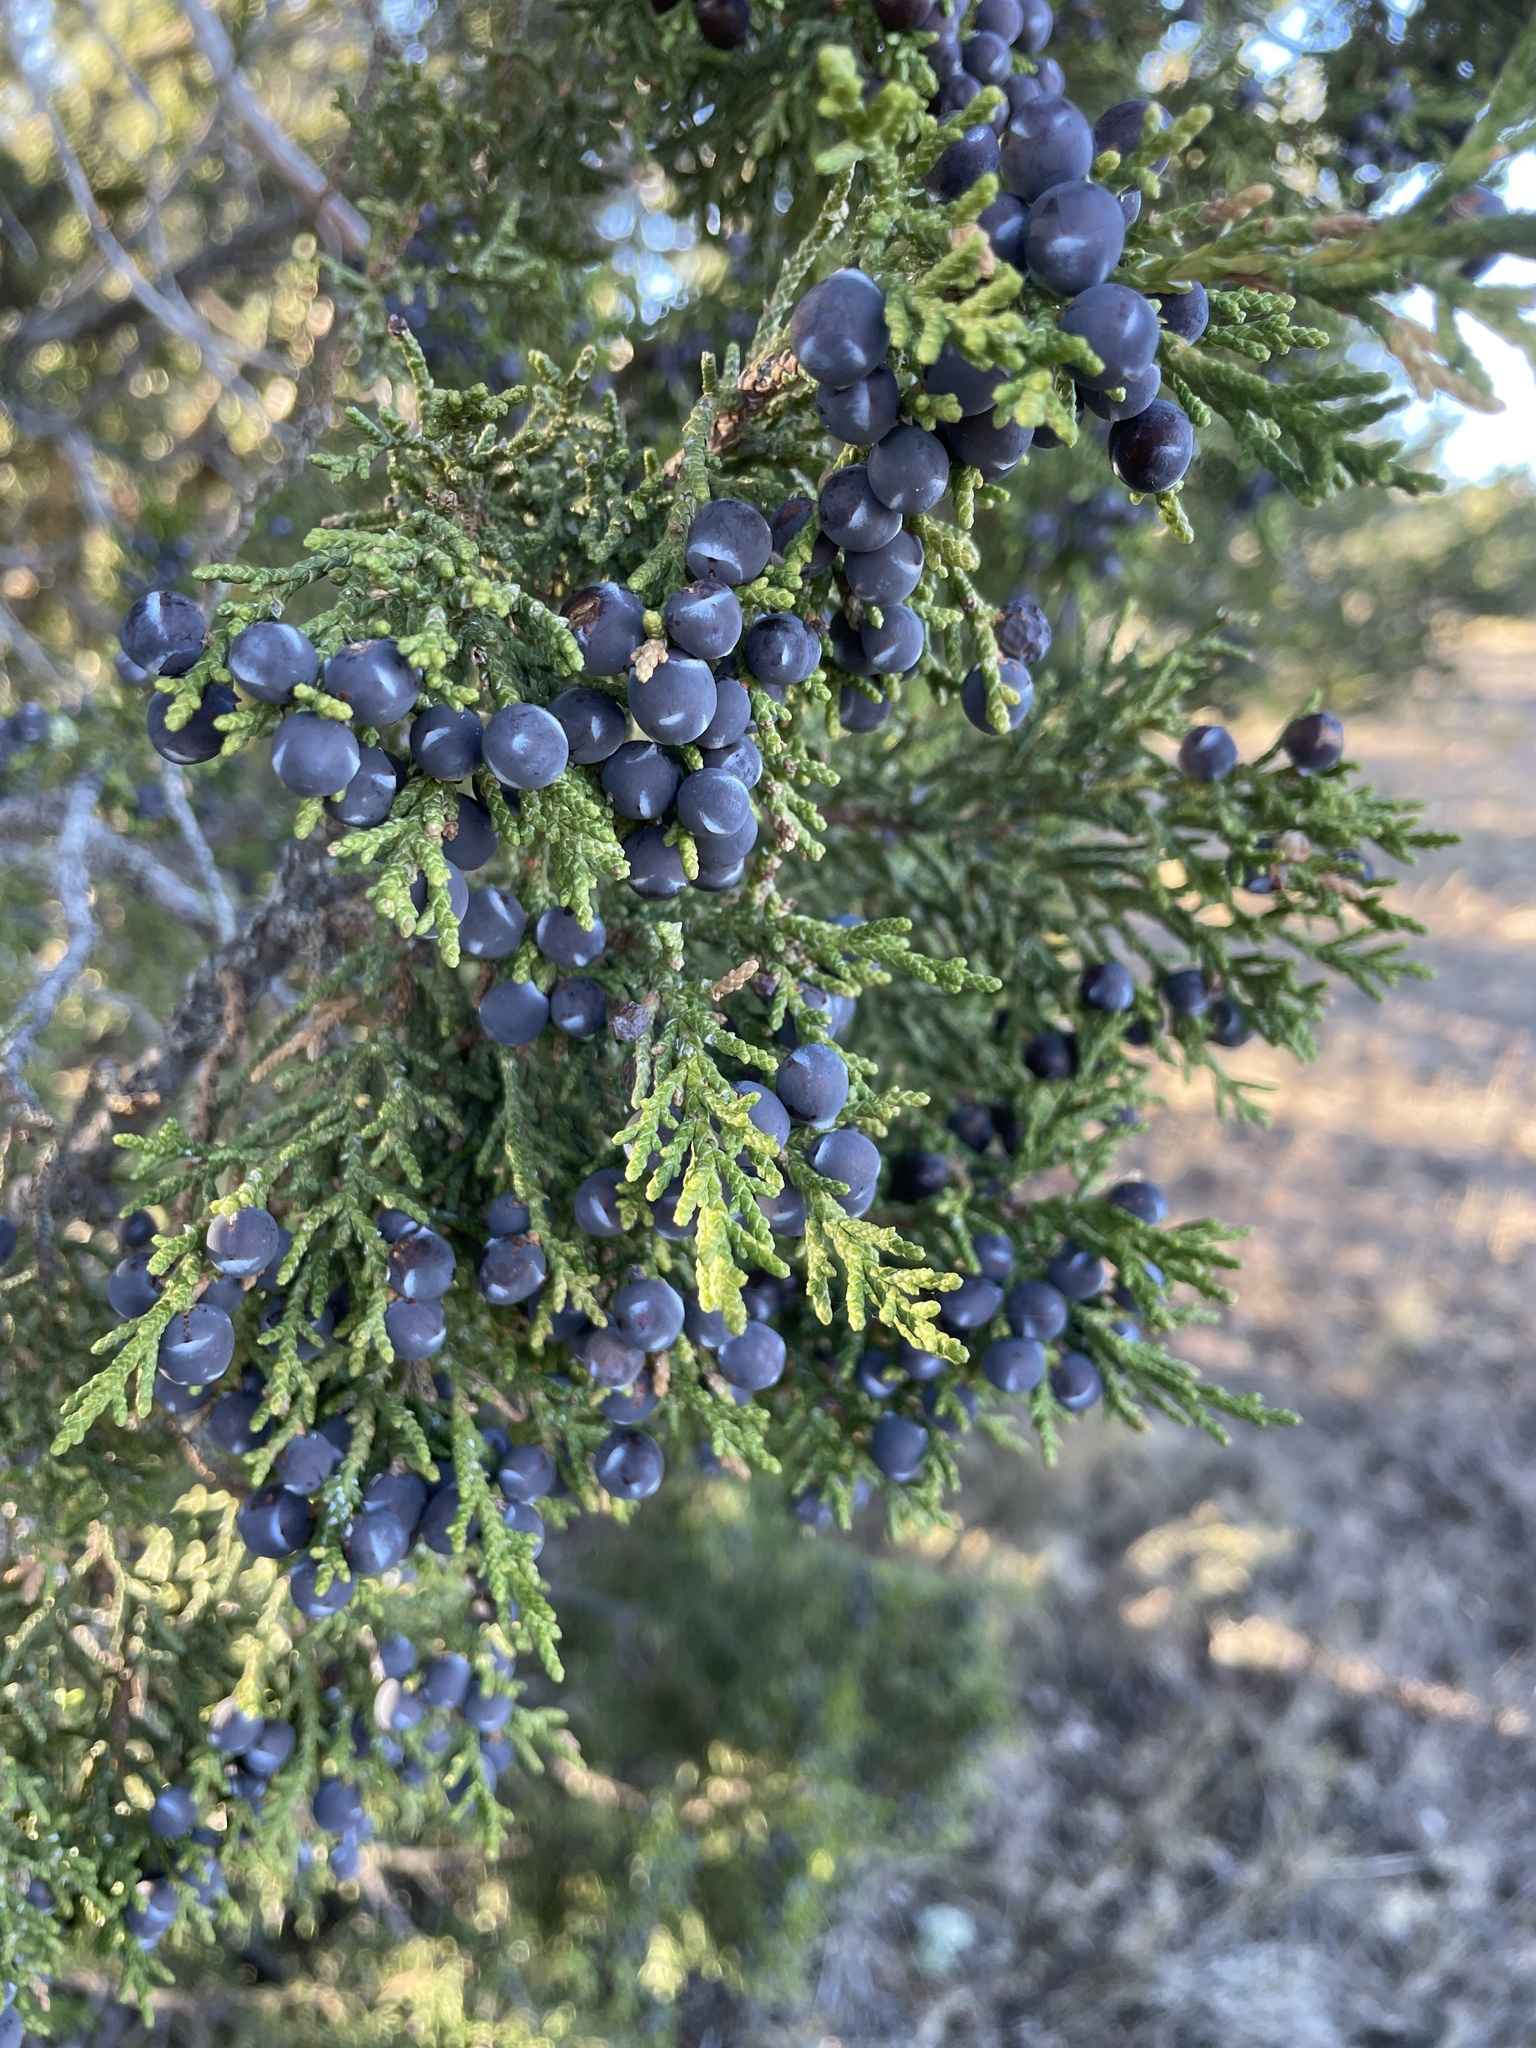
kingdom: Plantae
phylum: Tracheophyta
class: Pinopsida
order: Pinales
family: Cupressaceae
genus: Juniperus
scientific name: Juniperus monosperma
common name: One-seed juniper
